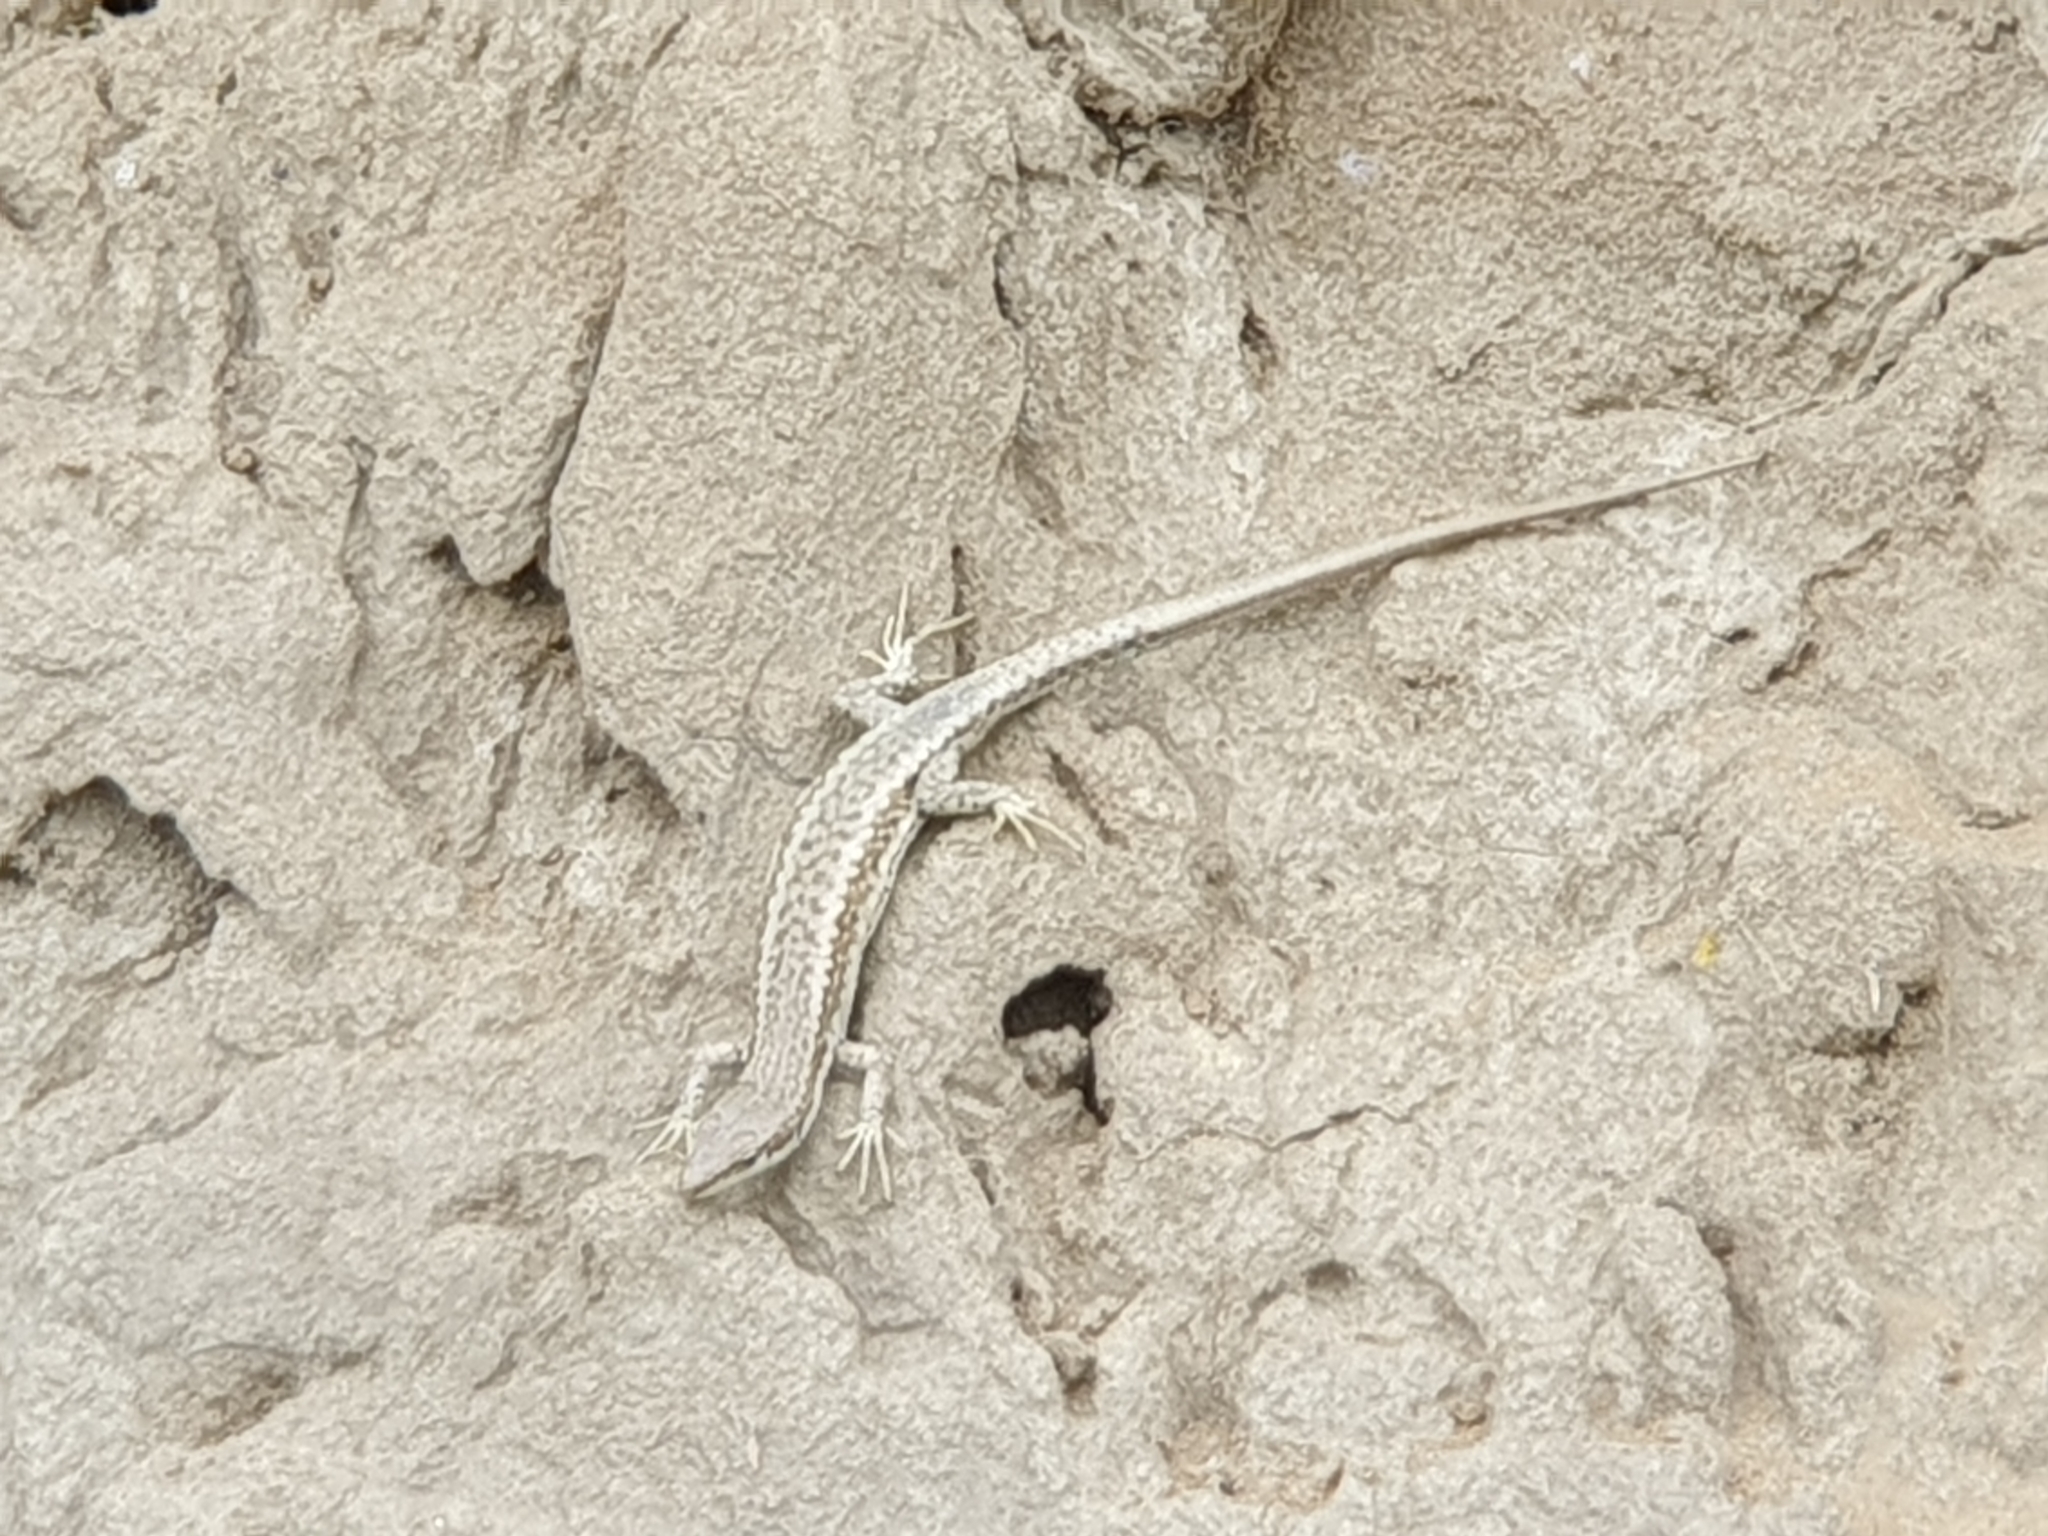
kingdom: Animalia
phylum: Chordata
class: Squamata
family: Lacertidae
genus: Darevskia
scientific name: Darevskia daghestanica
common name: Dagestan lizard
